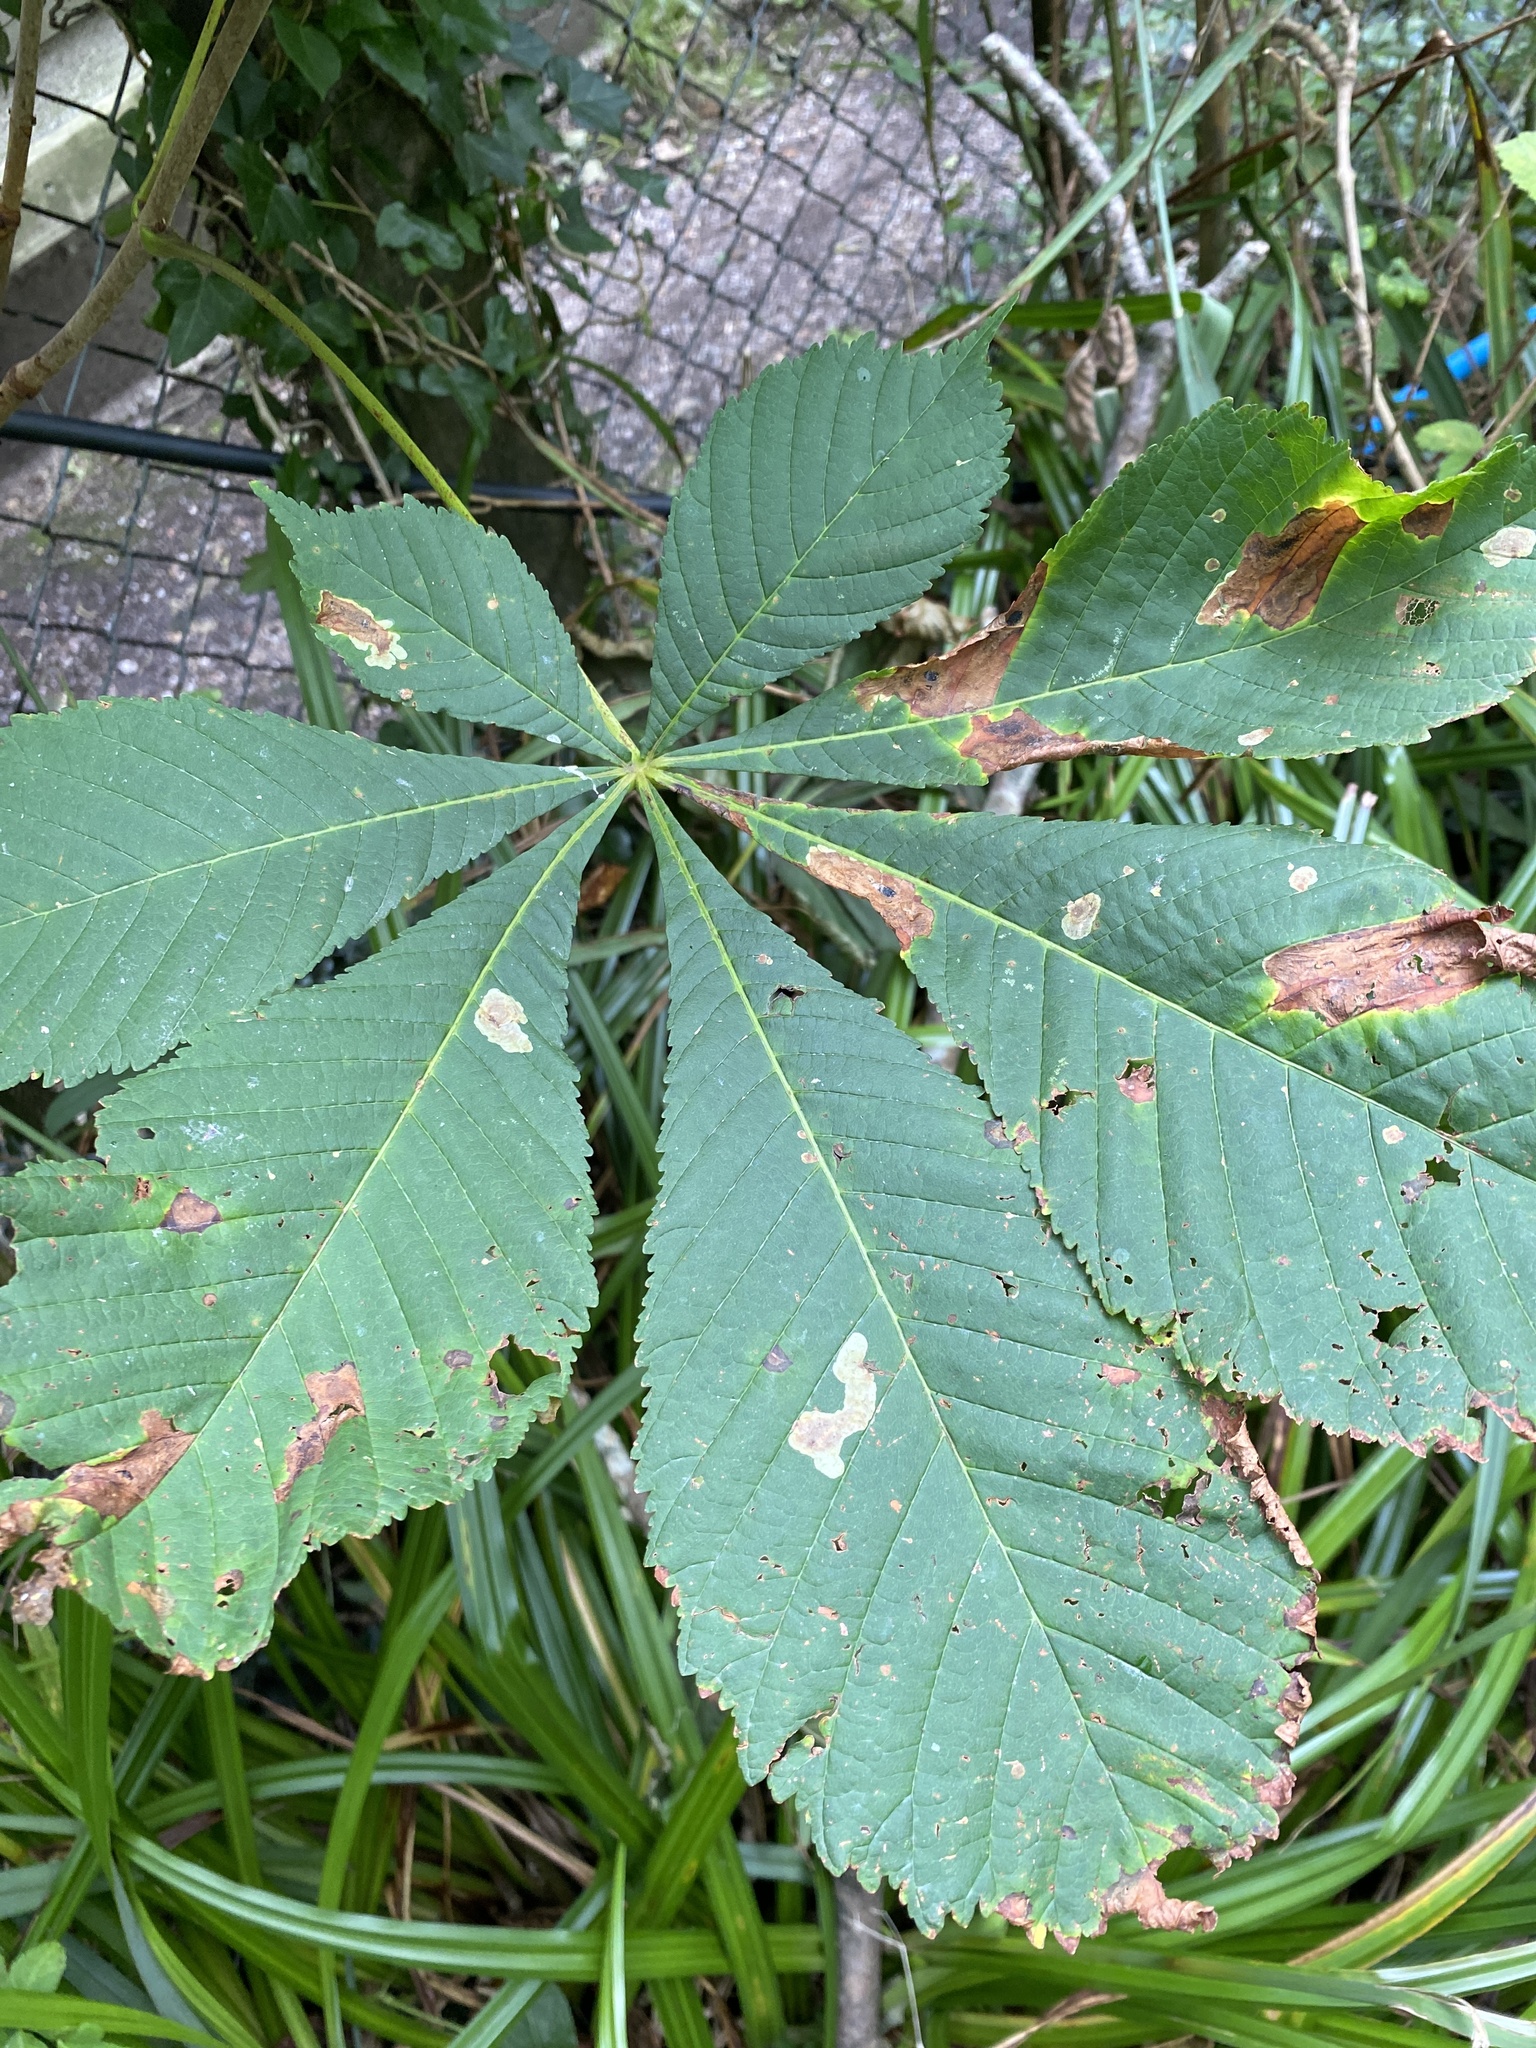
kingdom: Plantae
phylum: Tracheophyta
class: Magnoliopsida
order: Sapindales
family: Sapindaceae
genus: Aesculus
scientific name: Aesculus hippocastanum
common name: Horse-chestnut
